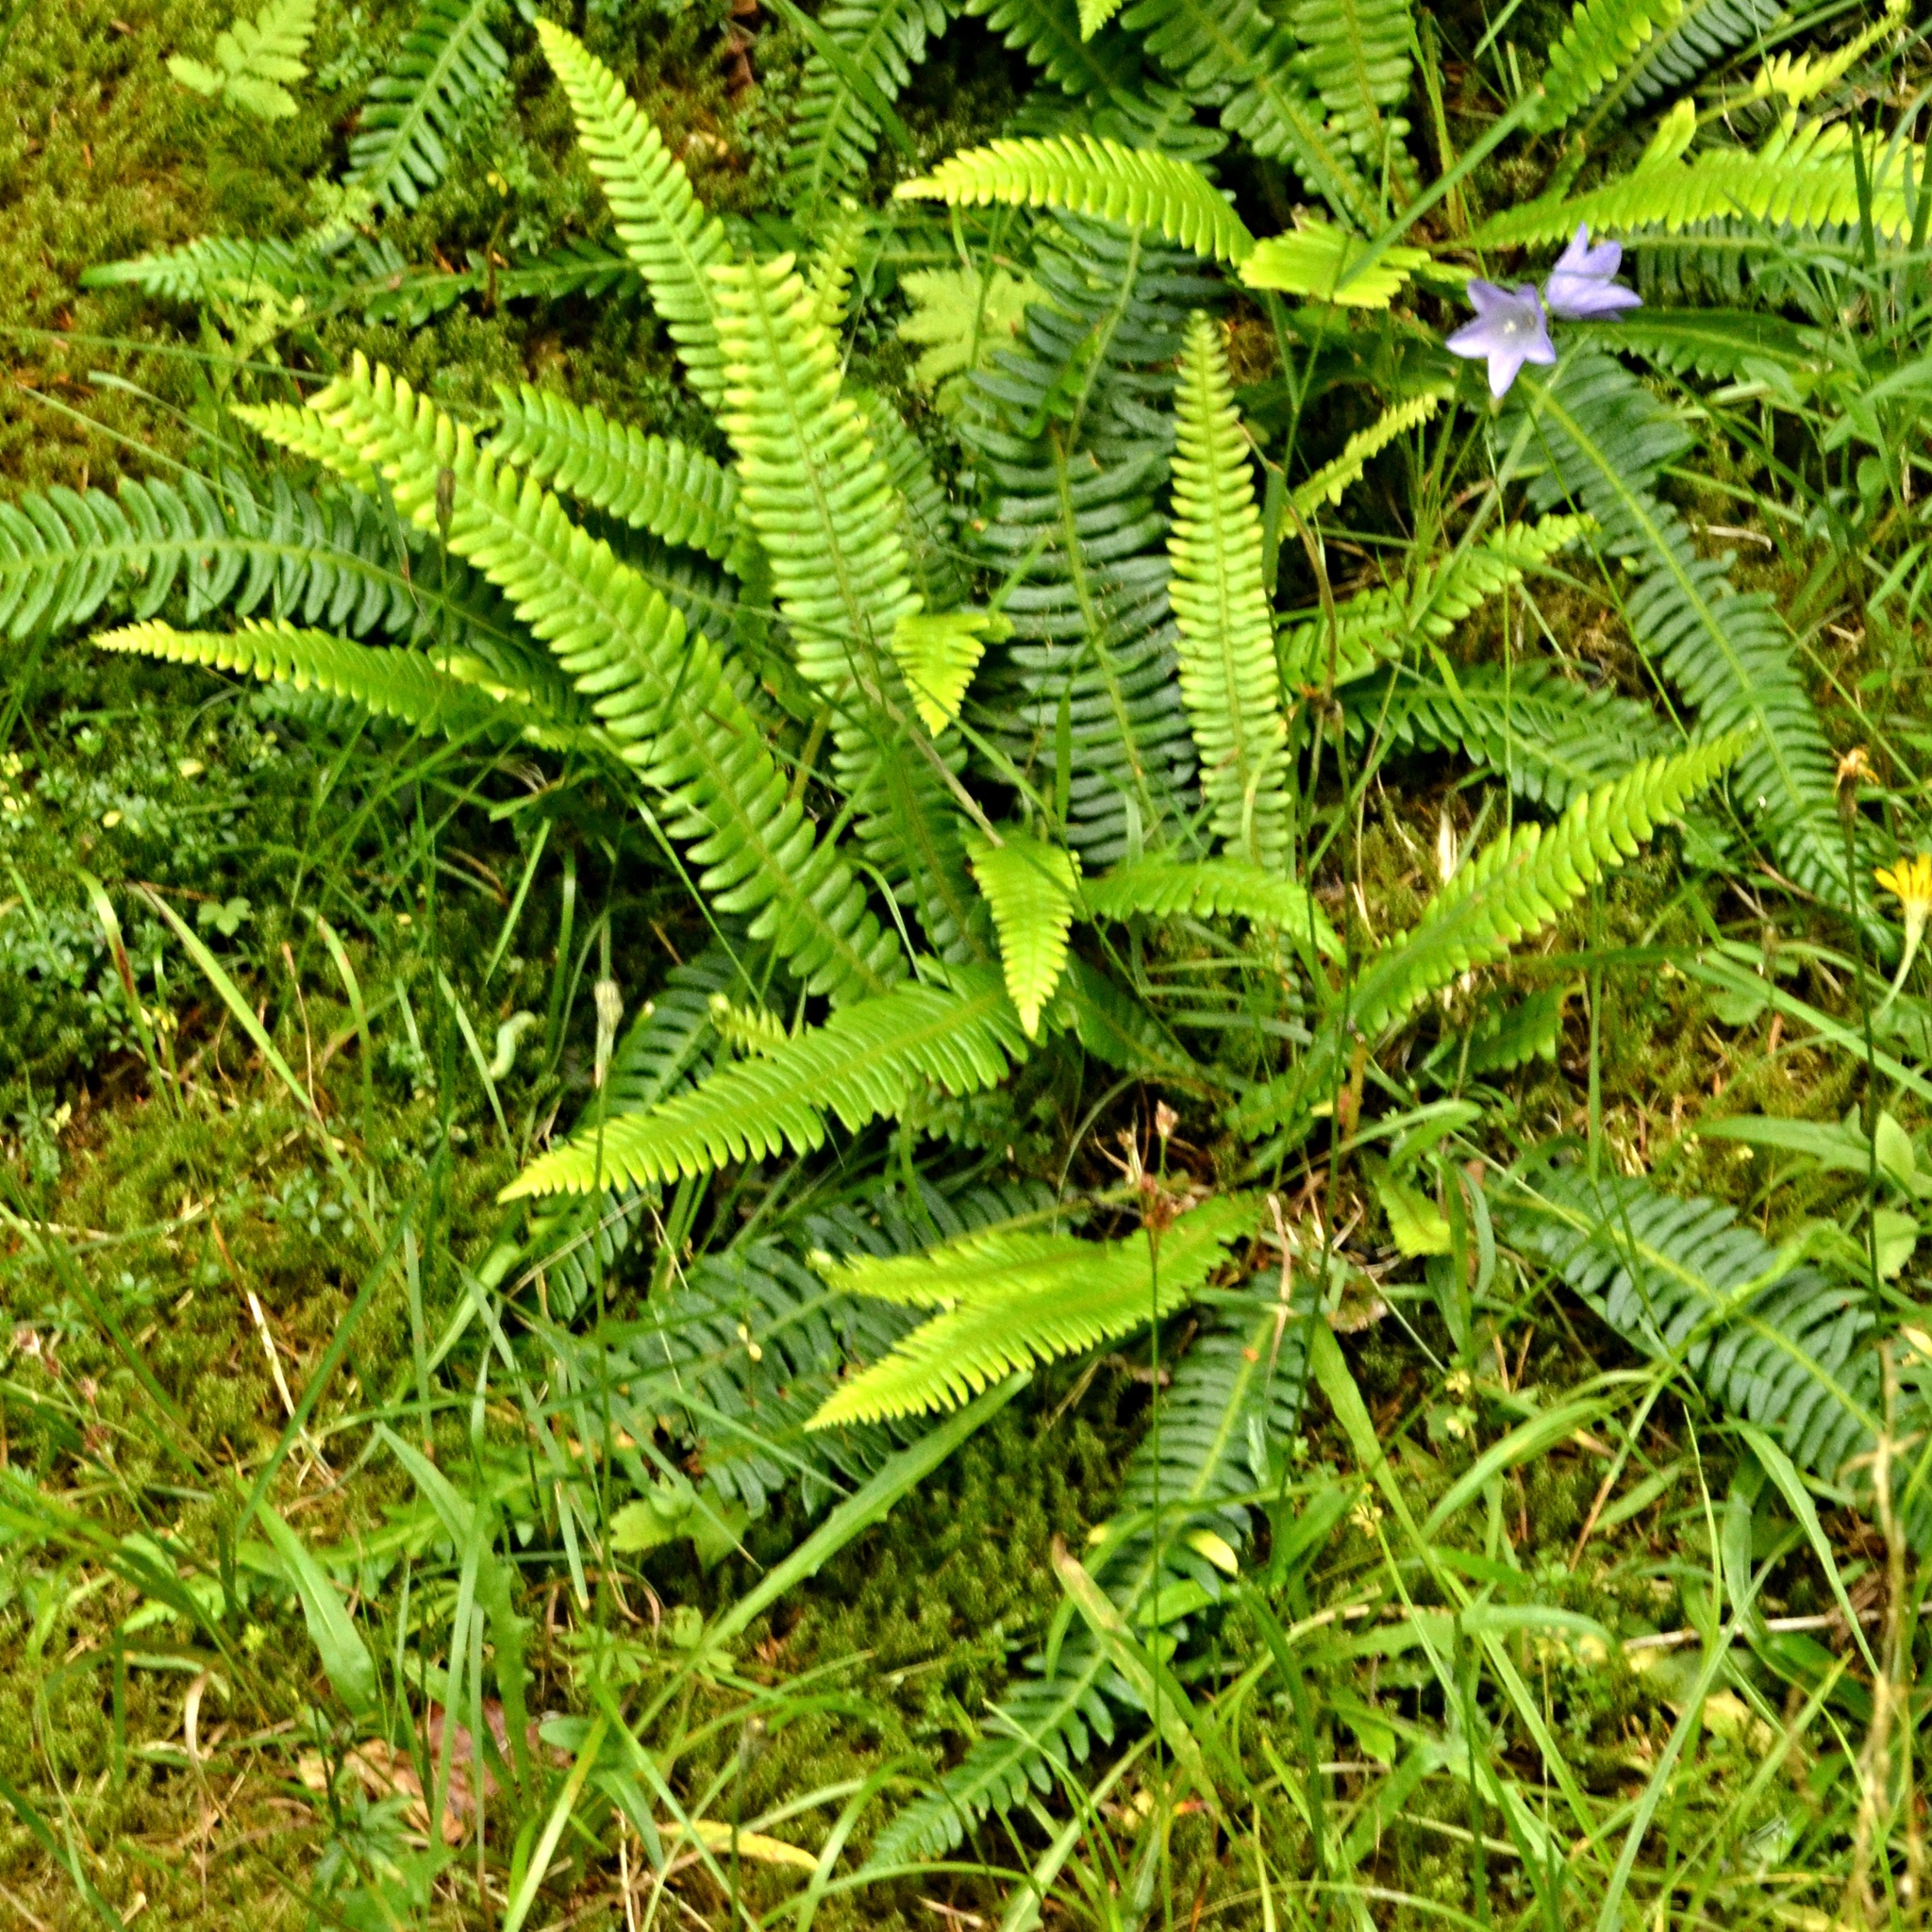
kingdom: Plantae
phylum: Tracheophyta
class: Polypodiopsida
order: Polypodiales
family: Blechnaceae
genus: Struthiopteris
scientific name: Struthiopteris spicant
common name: Deer fern
